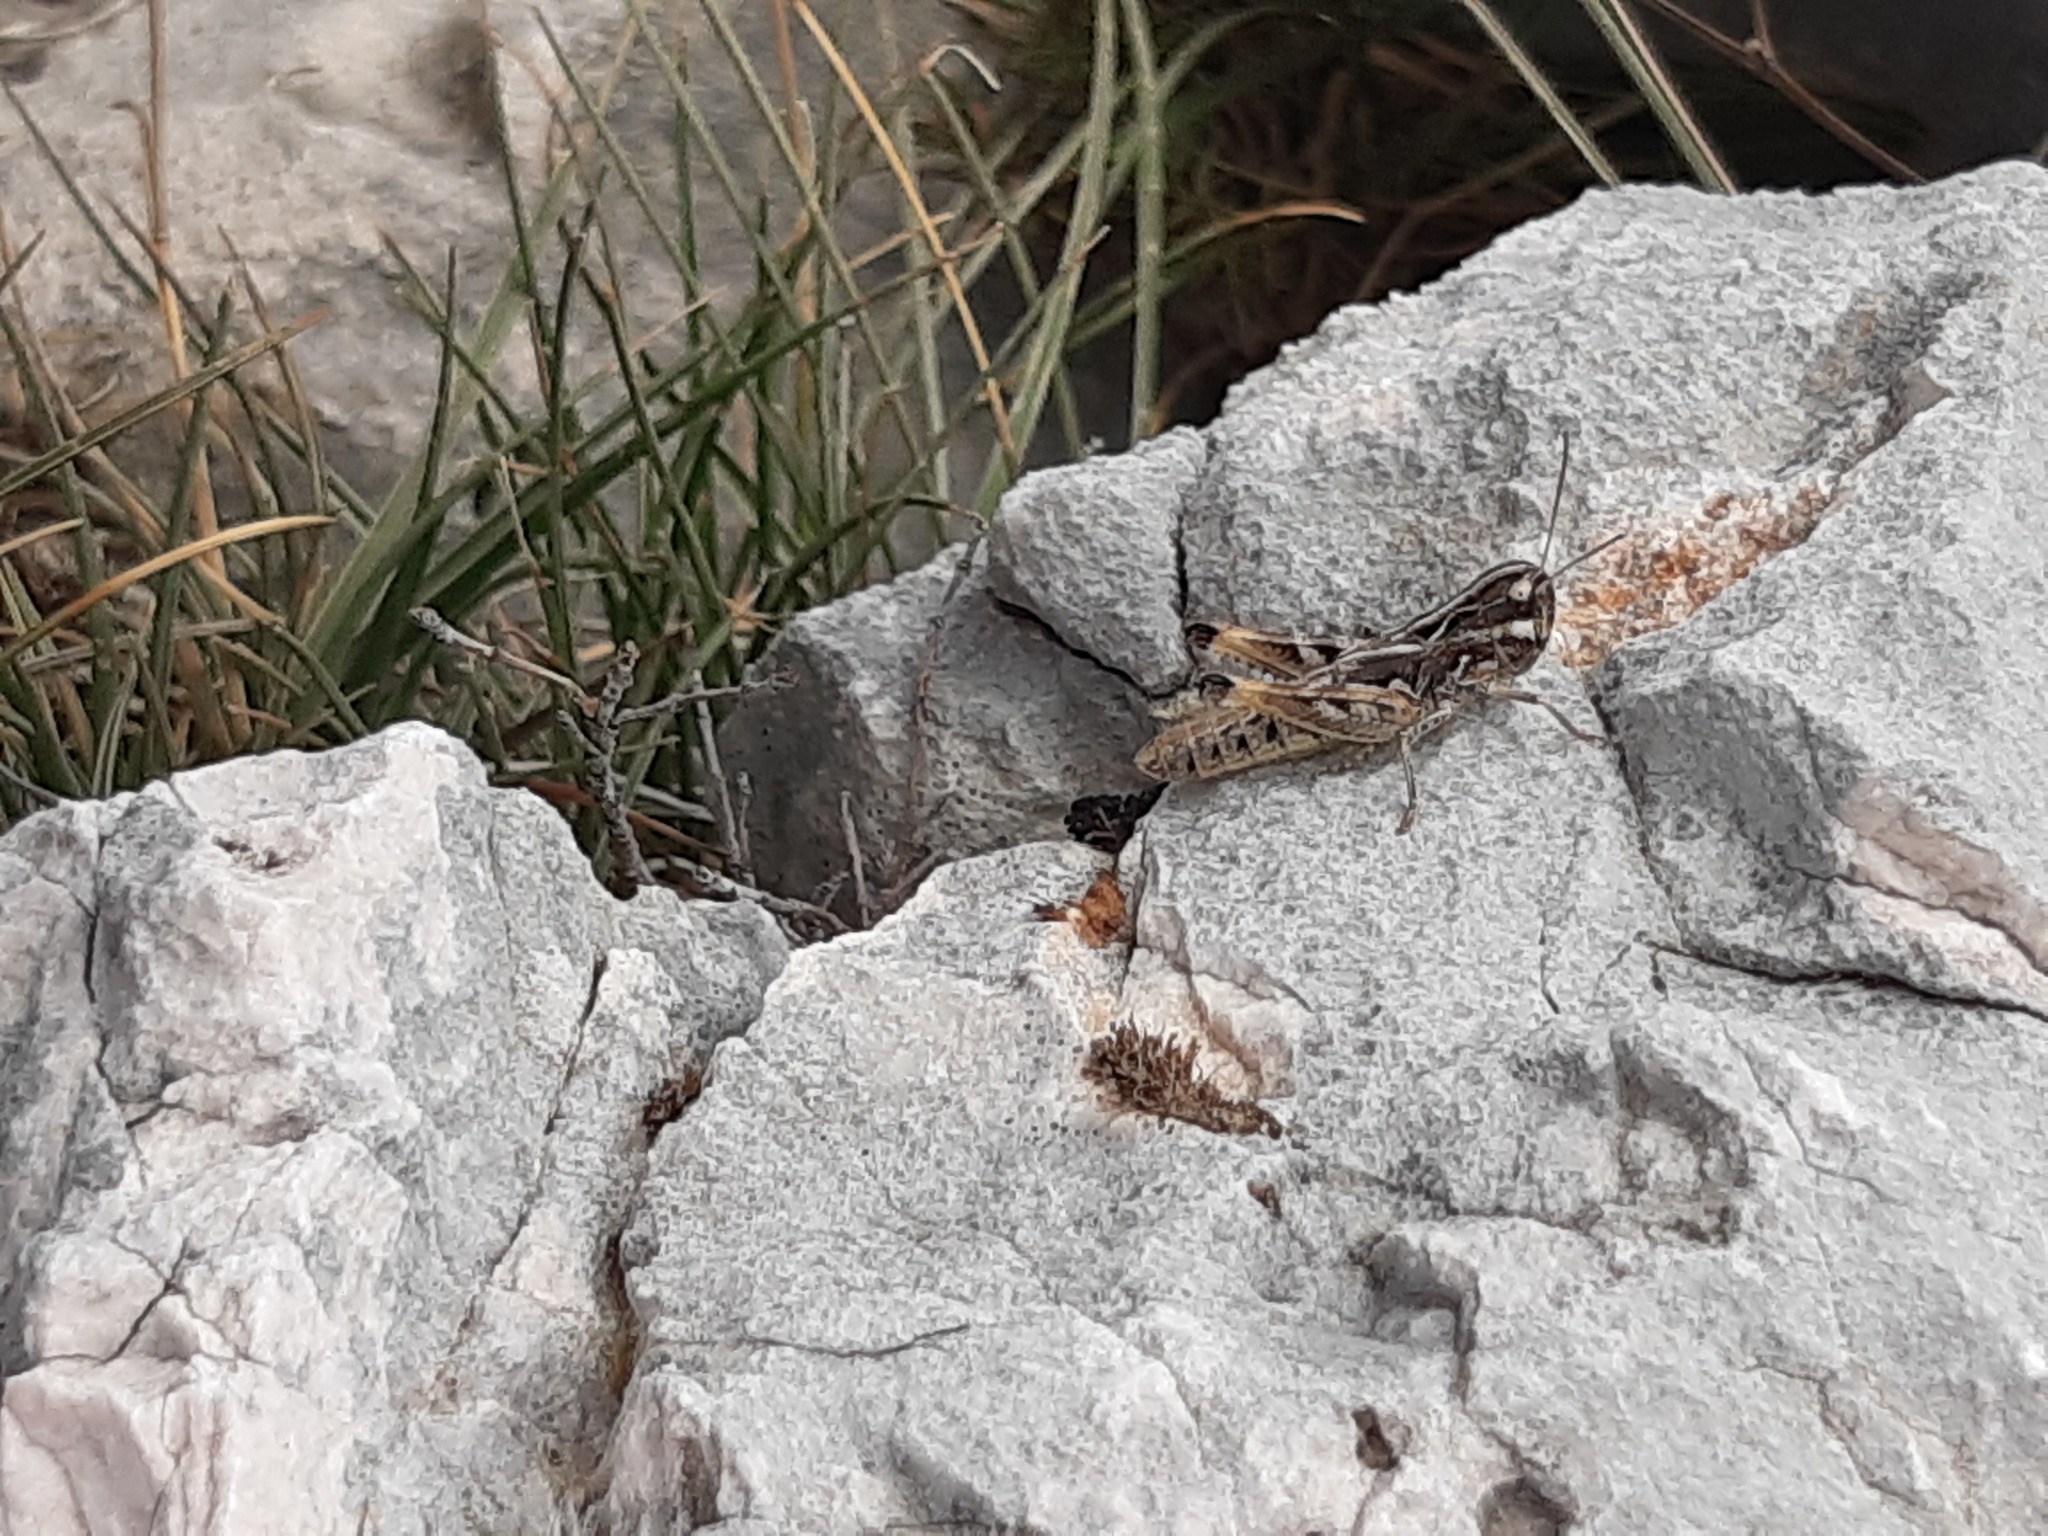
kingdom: Animalia
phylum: Arthropoda
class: Insecta
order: Orthoptera
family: Acrididae
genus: Rammeihippus
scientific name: Rammeihippus dinaricus
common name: Dinarian grasshopper
